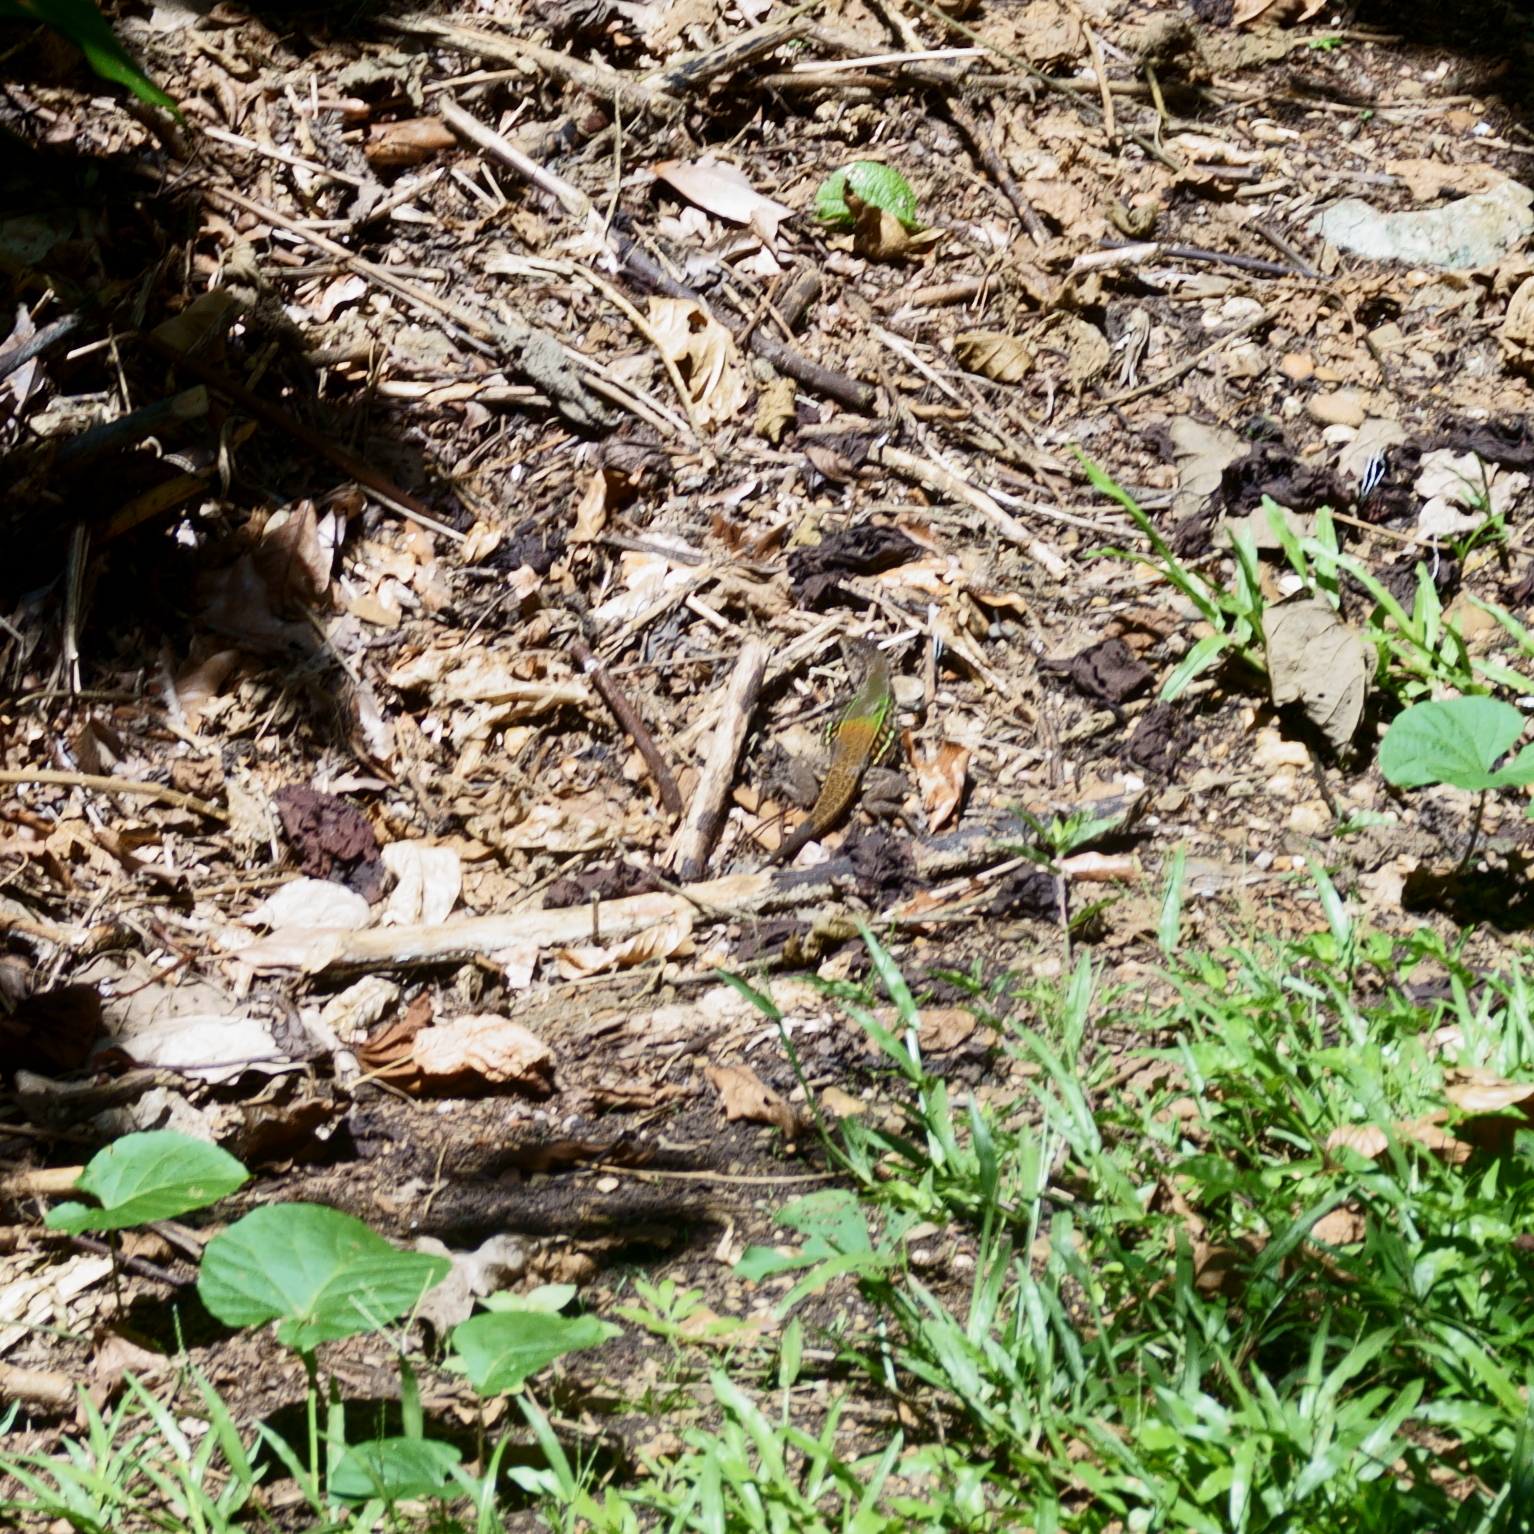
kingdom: Animalia
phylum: Chordata
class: Squamata
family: Teiidae
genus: Holcosus
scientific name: Holcosus undulatus
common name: Rainbow ameiva
